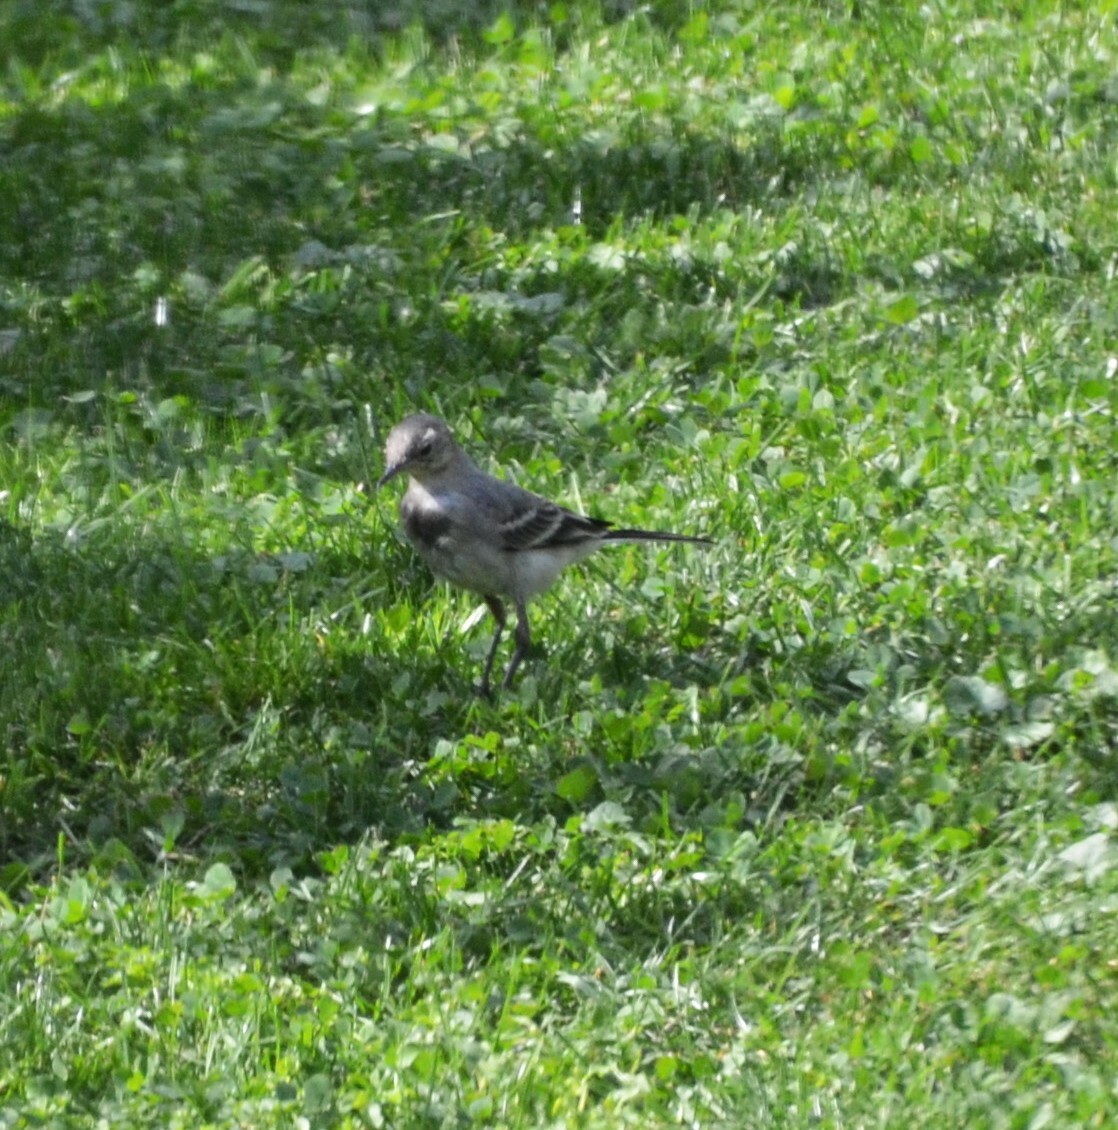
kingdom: Animalia
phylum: Chordata
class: Aves
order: Passeriformes
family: Motacillidae
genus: Motacilla
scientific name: Motacilla alba
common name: White wagtail
